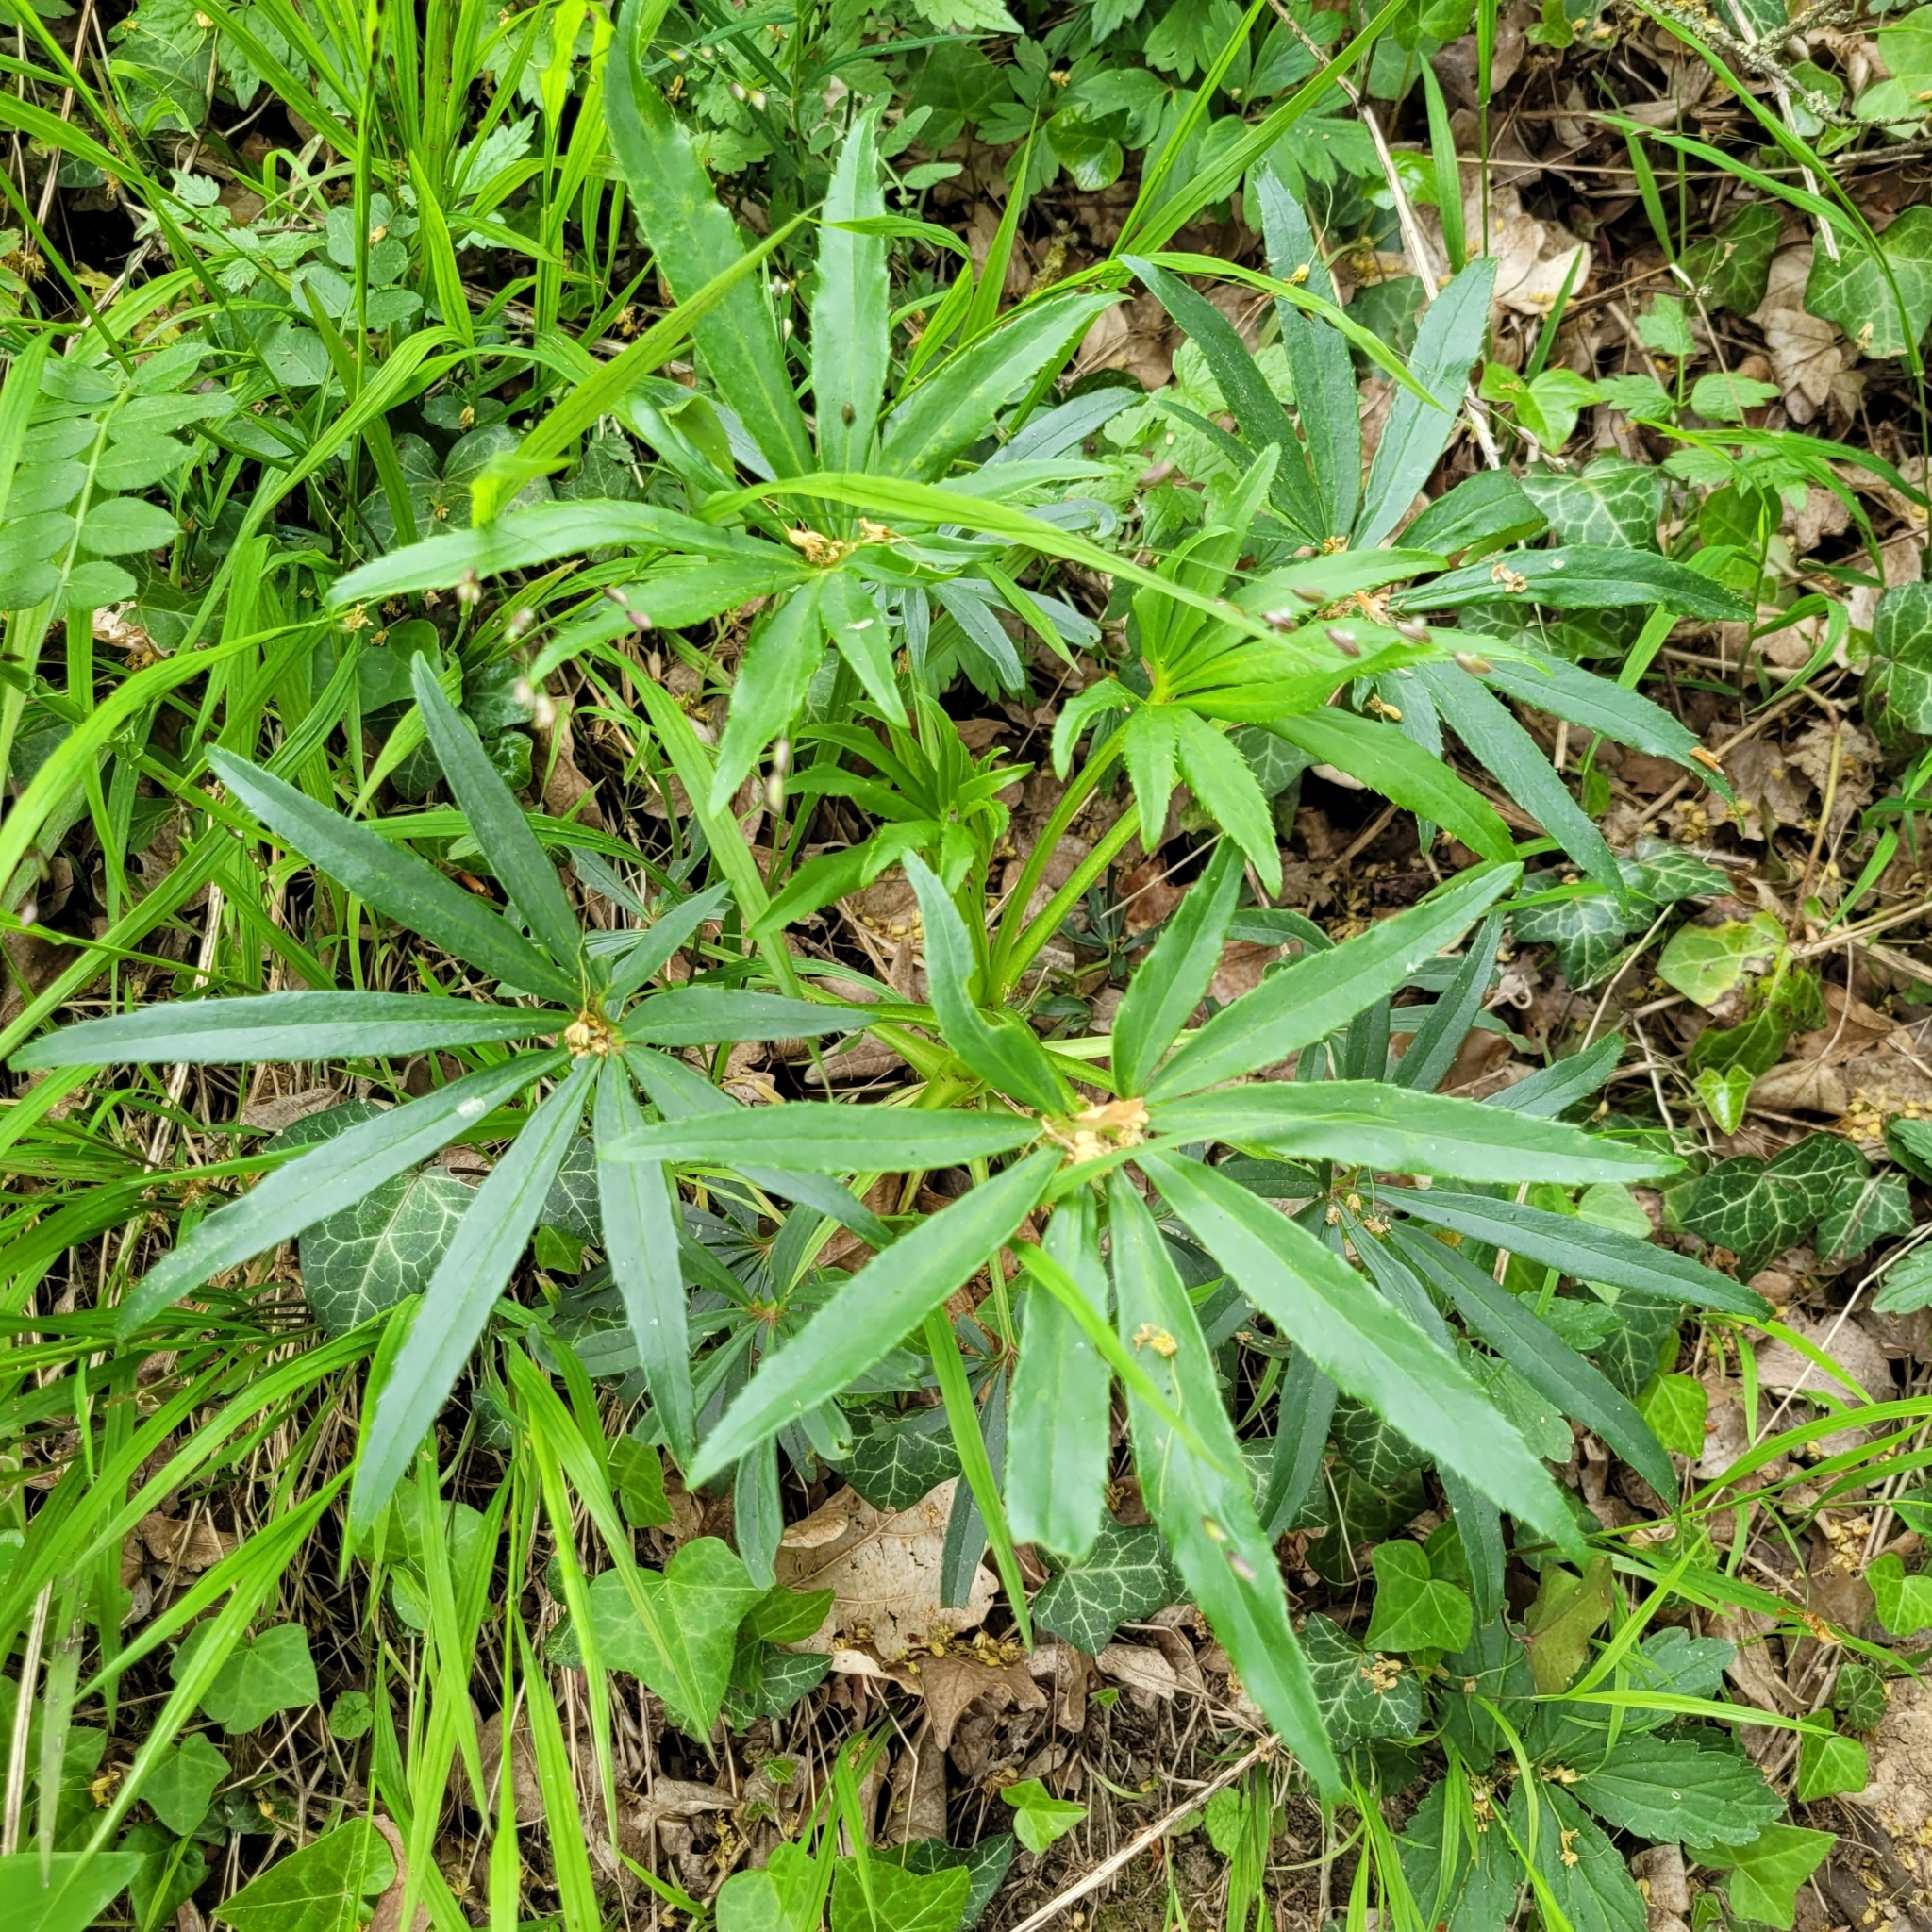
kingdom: Plantae
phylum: Tracheophyta
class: Magnoliopsida
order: Ranunculales
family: Ranunculaceae
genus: Helleborus
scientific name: Helleborus foetidus
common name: Stinking hellebore
